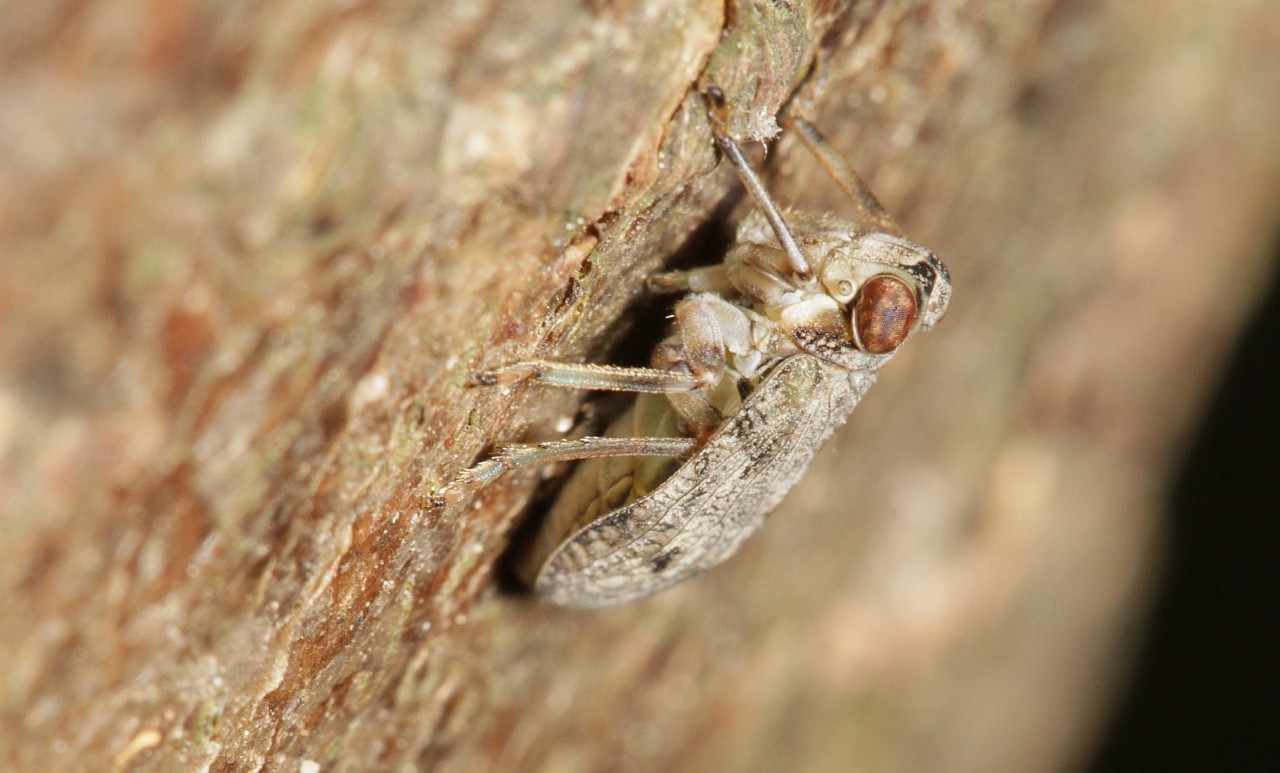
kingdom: Animalia
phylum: Arthropoda
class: Insecta
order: Hemiptera
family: Issidae
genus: Issus
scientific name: Issus coleoptratus
